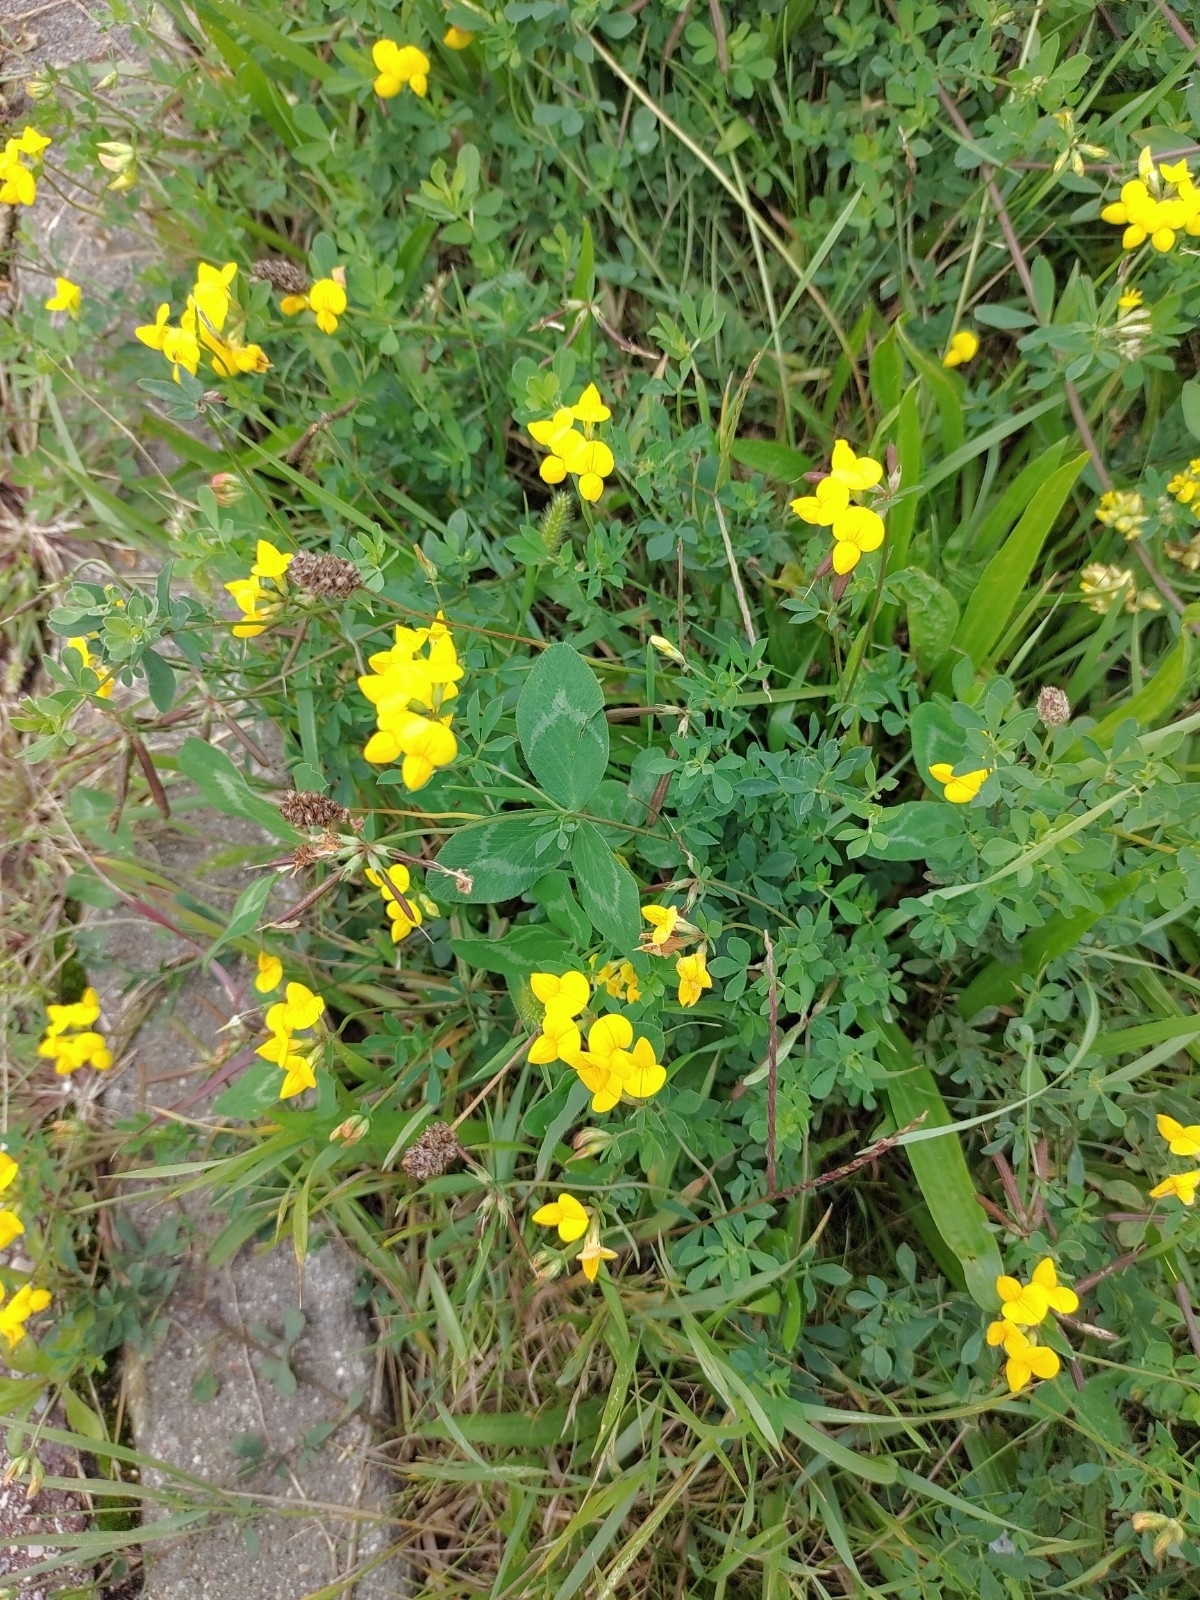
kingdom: Plantae
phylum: Tracheophyta
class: Magnoliopsida
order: Fabales
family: Fabaceae
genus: Lotus
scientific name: Lotus corniculatus
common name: Common bird's-foot-trefoil
